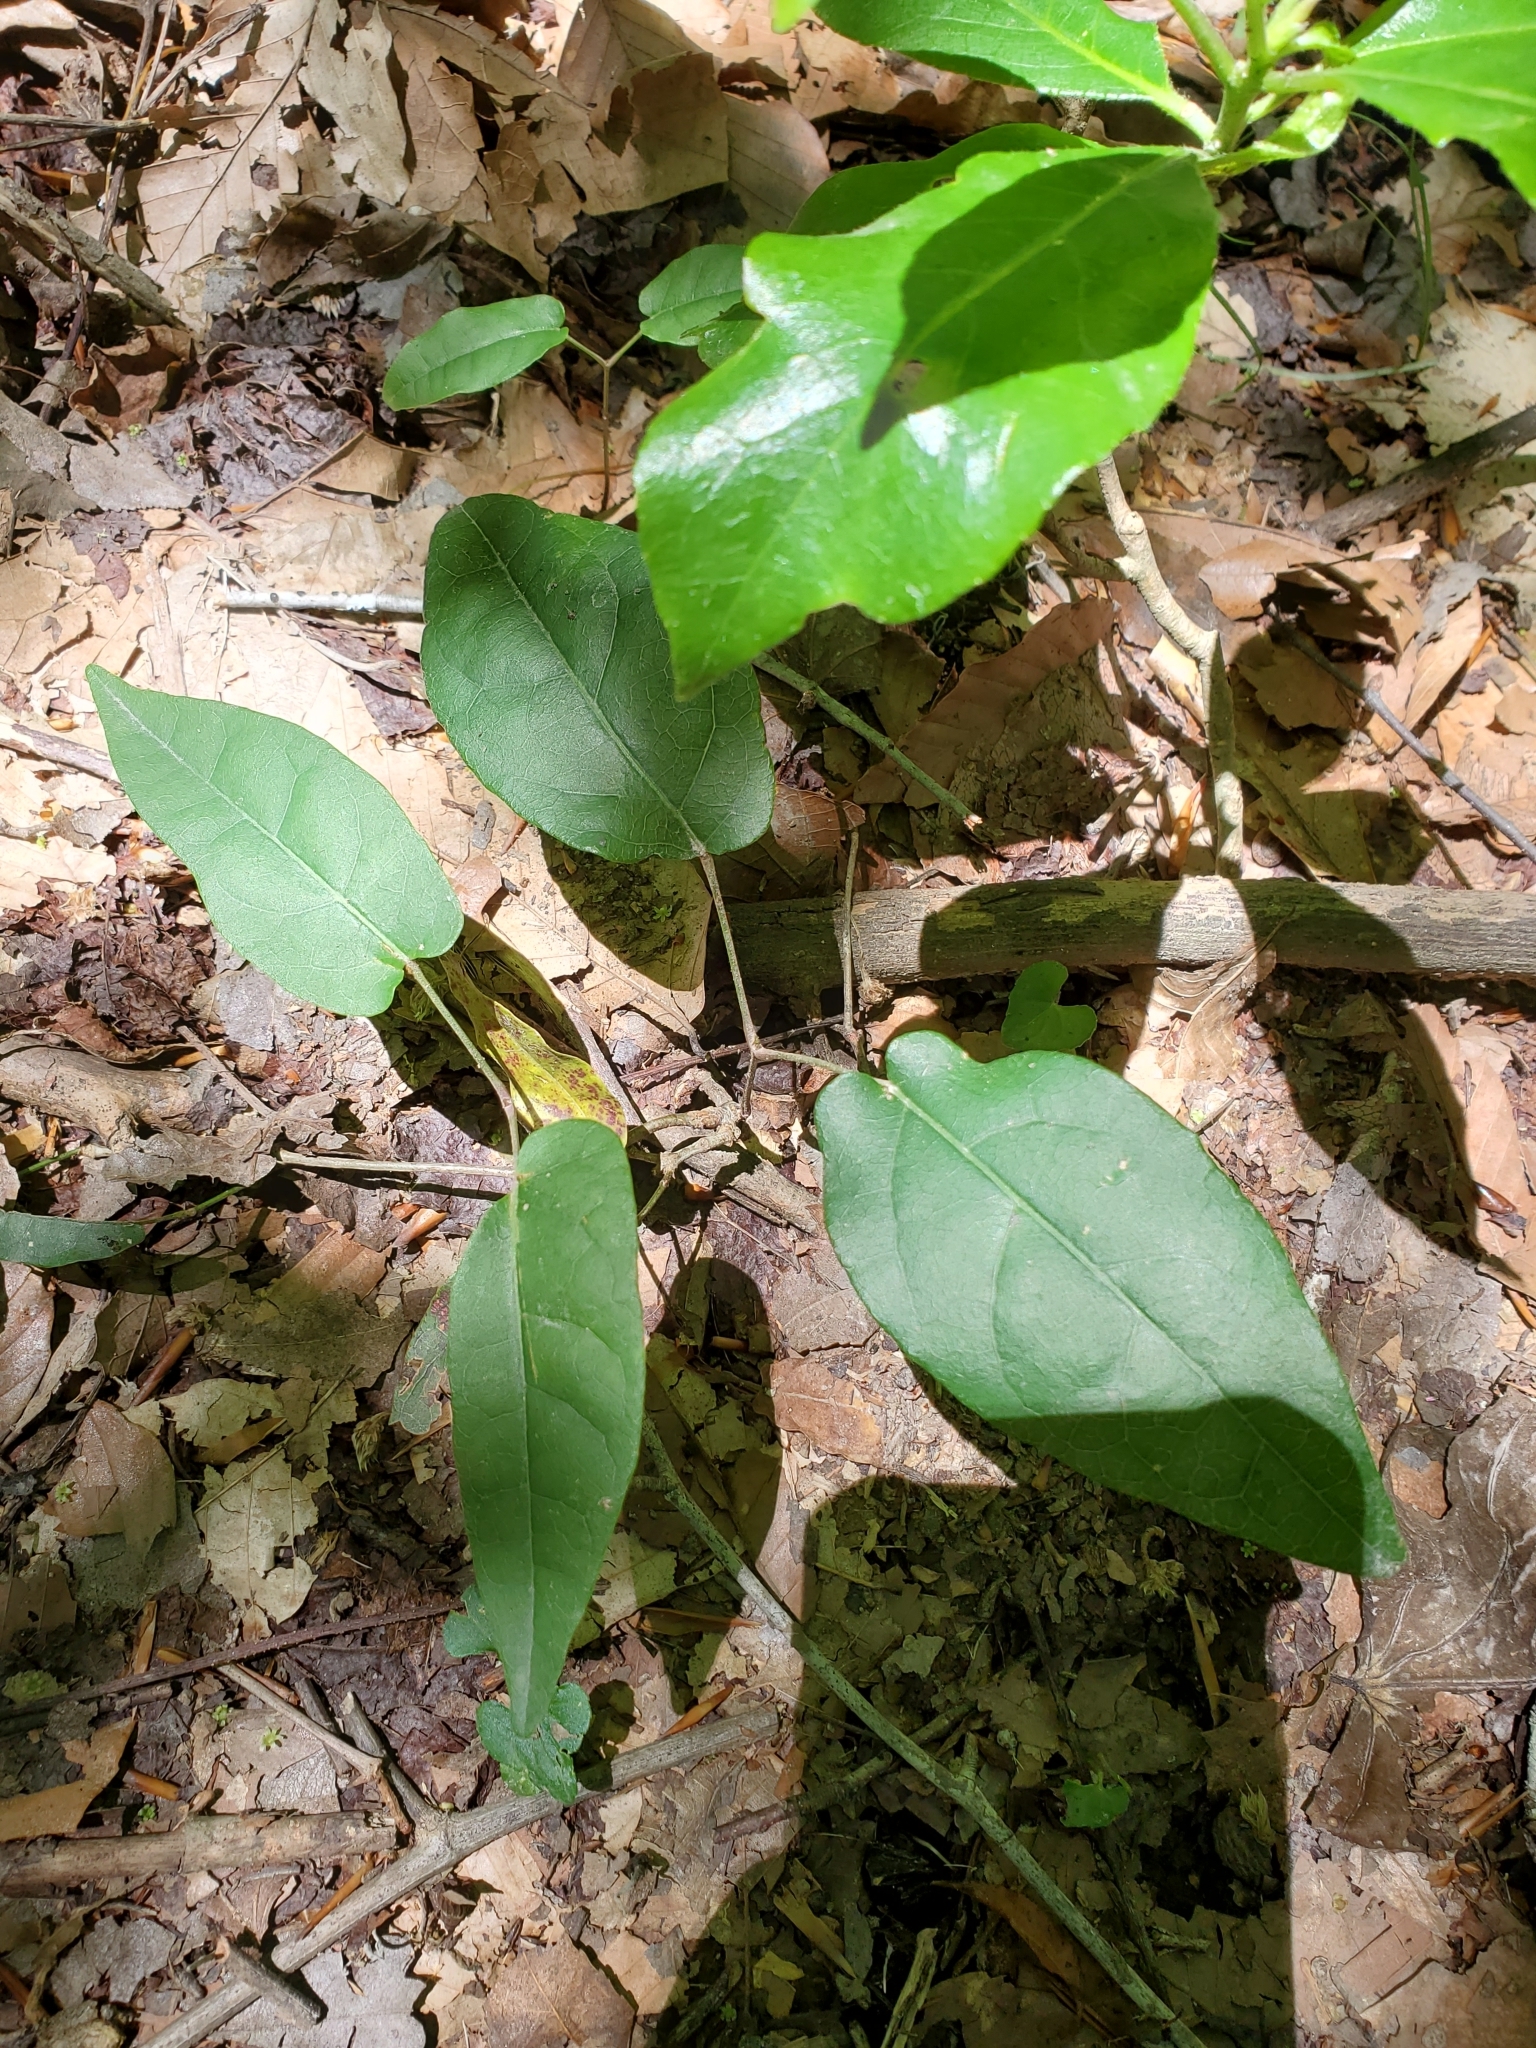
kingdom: Plantae
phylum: Tracheophyta
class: Magnoliopsida
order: Lamiales
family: Bignoniaceae
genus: Bignonia
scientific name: Bignonia capreolata
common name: Crossvine
